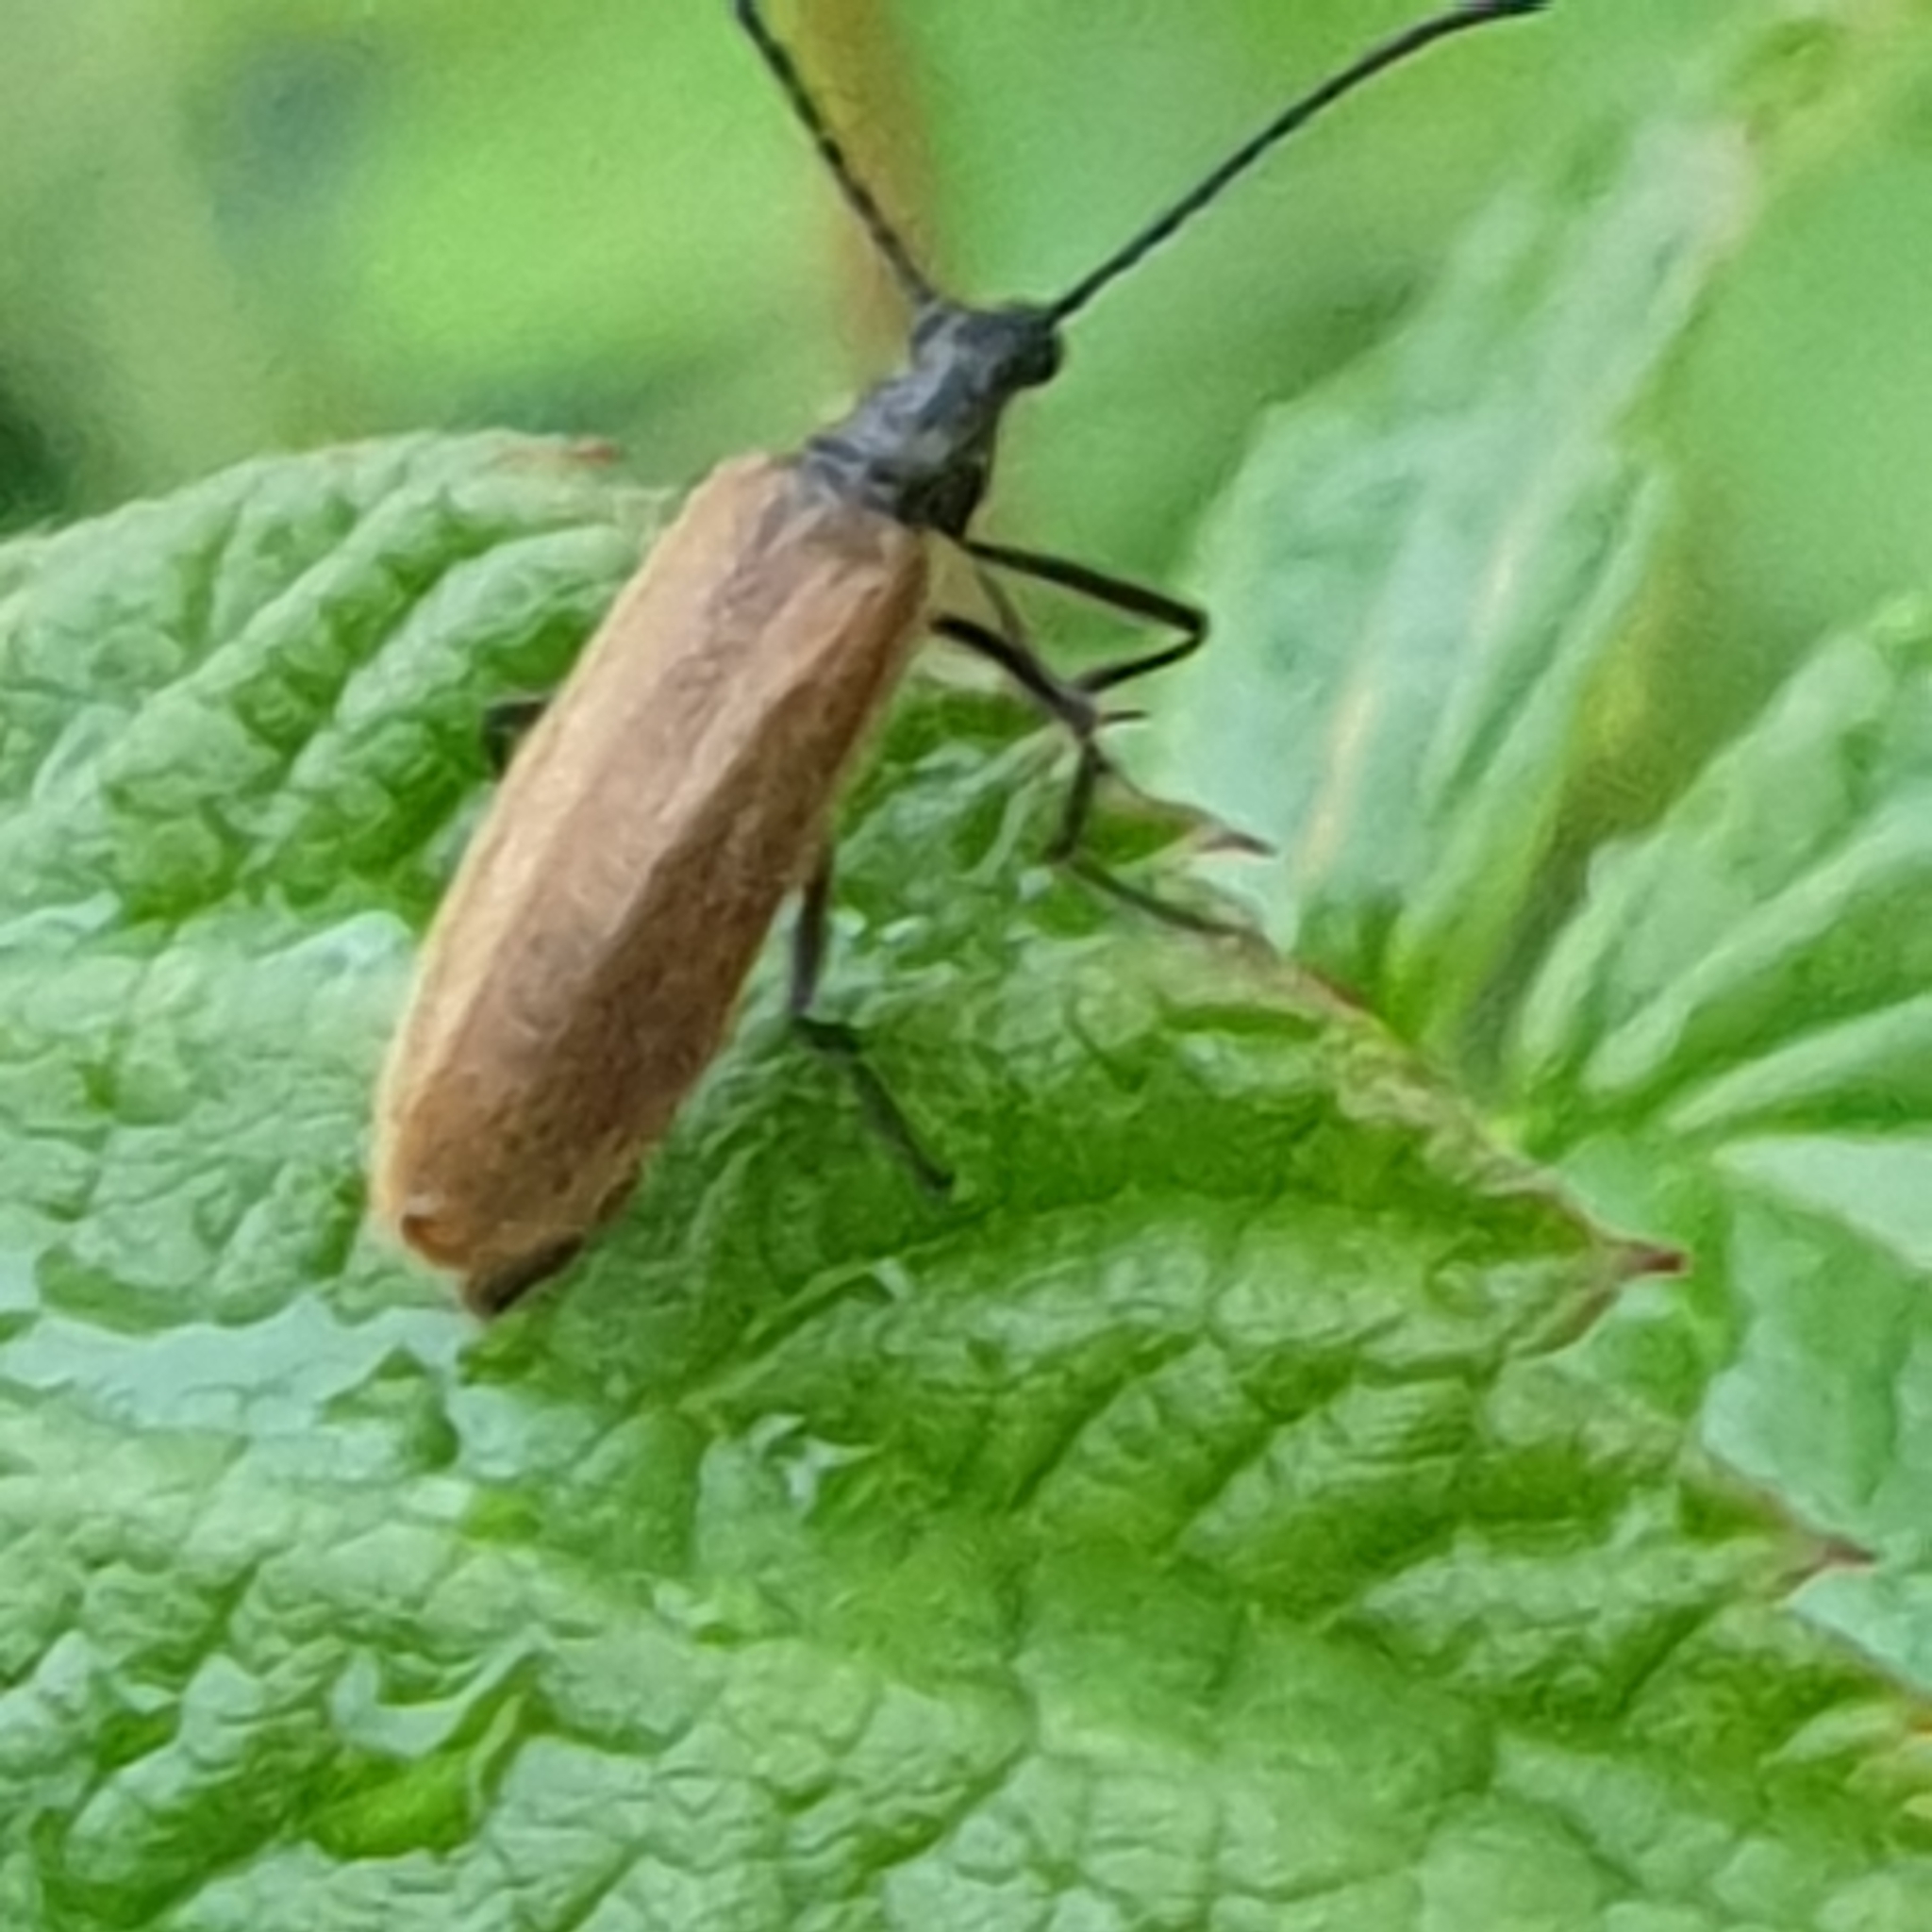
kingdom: Animalia
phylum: Arthropoda
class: Insecta
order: Coleoptera
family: Tenebrionidae
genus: Lagria
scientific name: Lagria hirta
